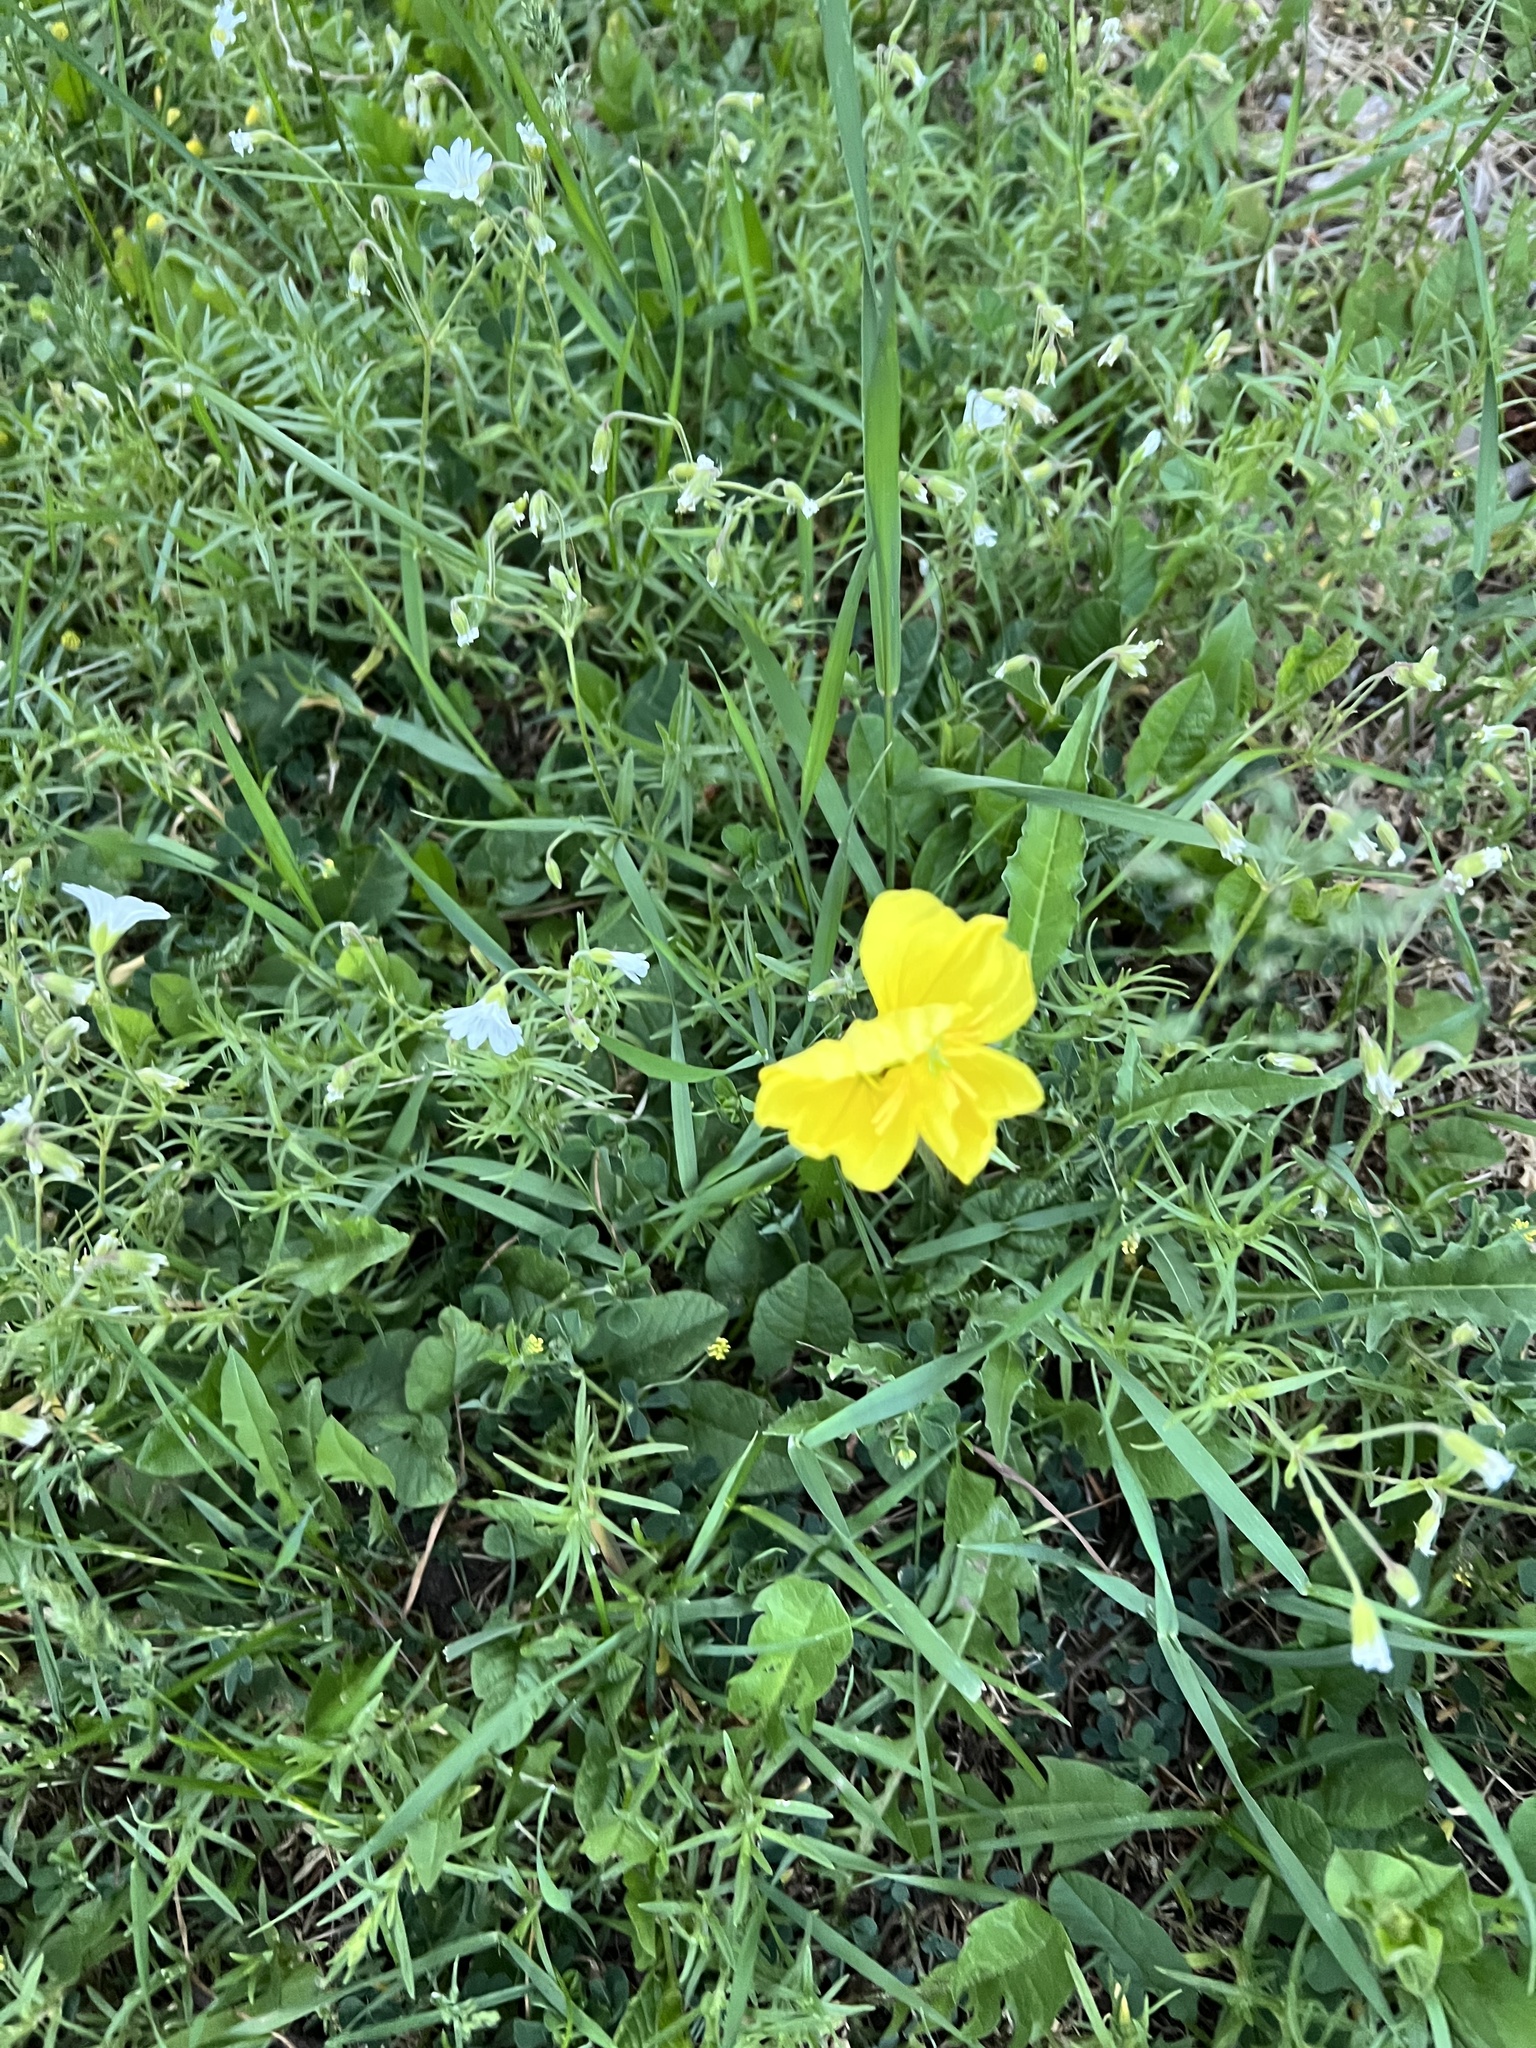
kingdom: Plantae
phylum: Tracheophyta
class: Magnoliopsida
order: Myrtales
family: Onagraceae
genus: Oenothera
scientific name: Oenothera hartwegii
